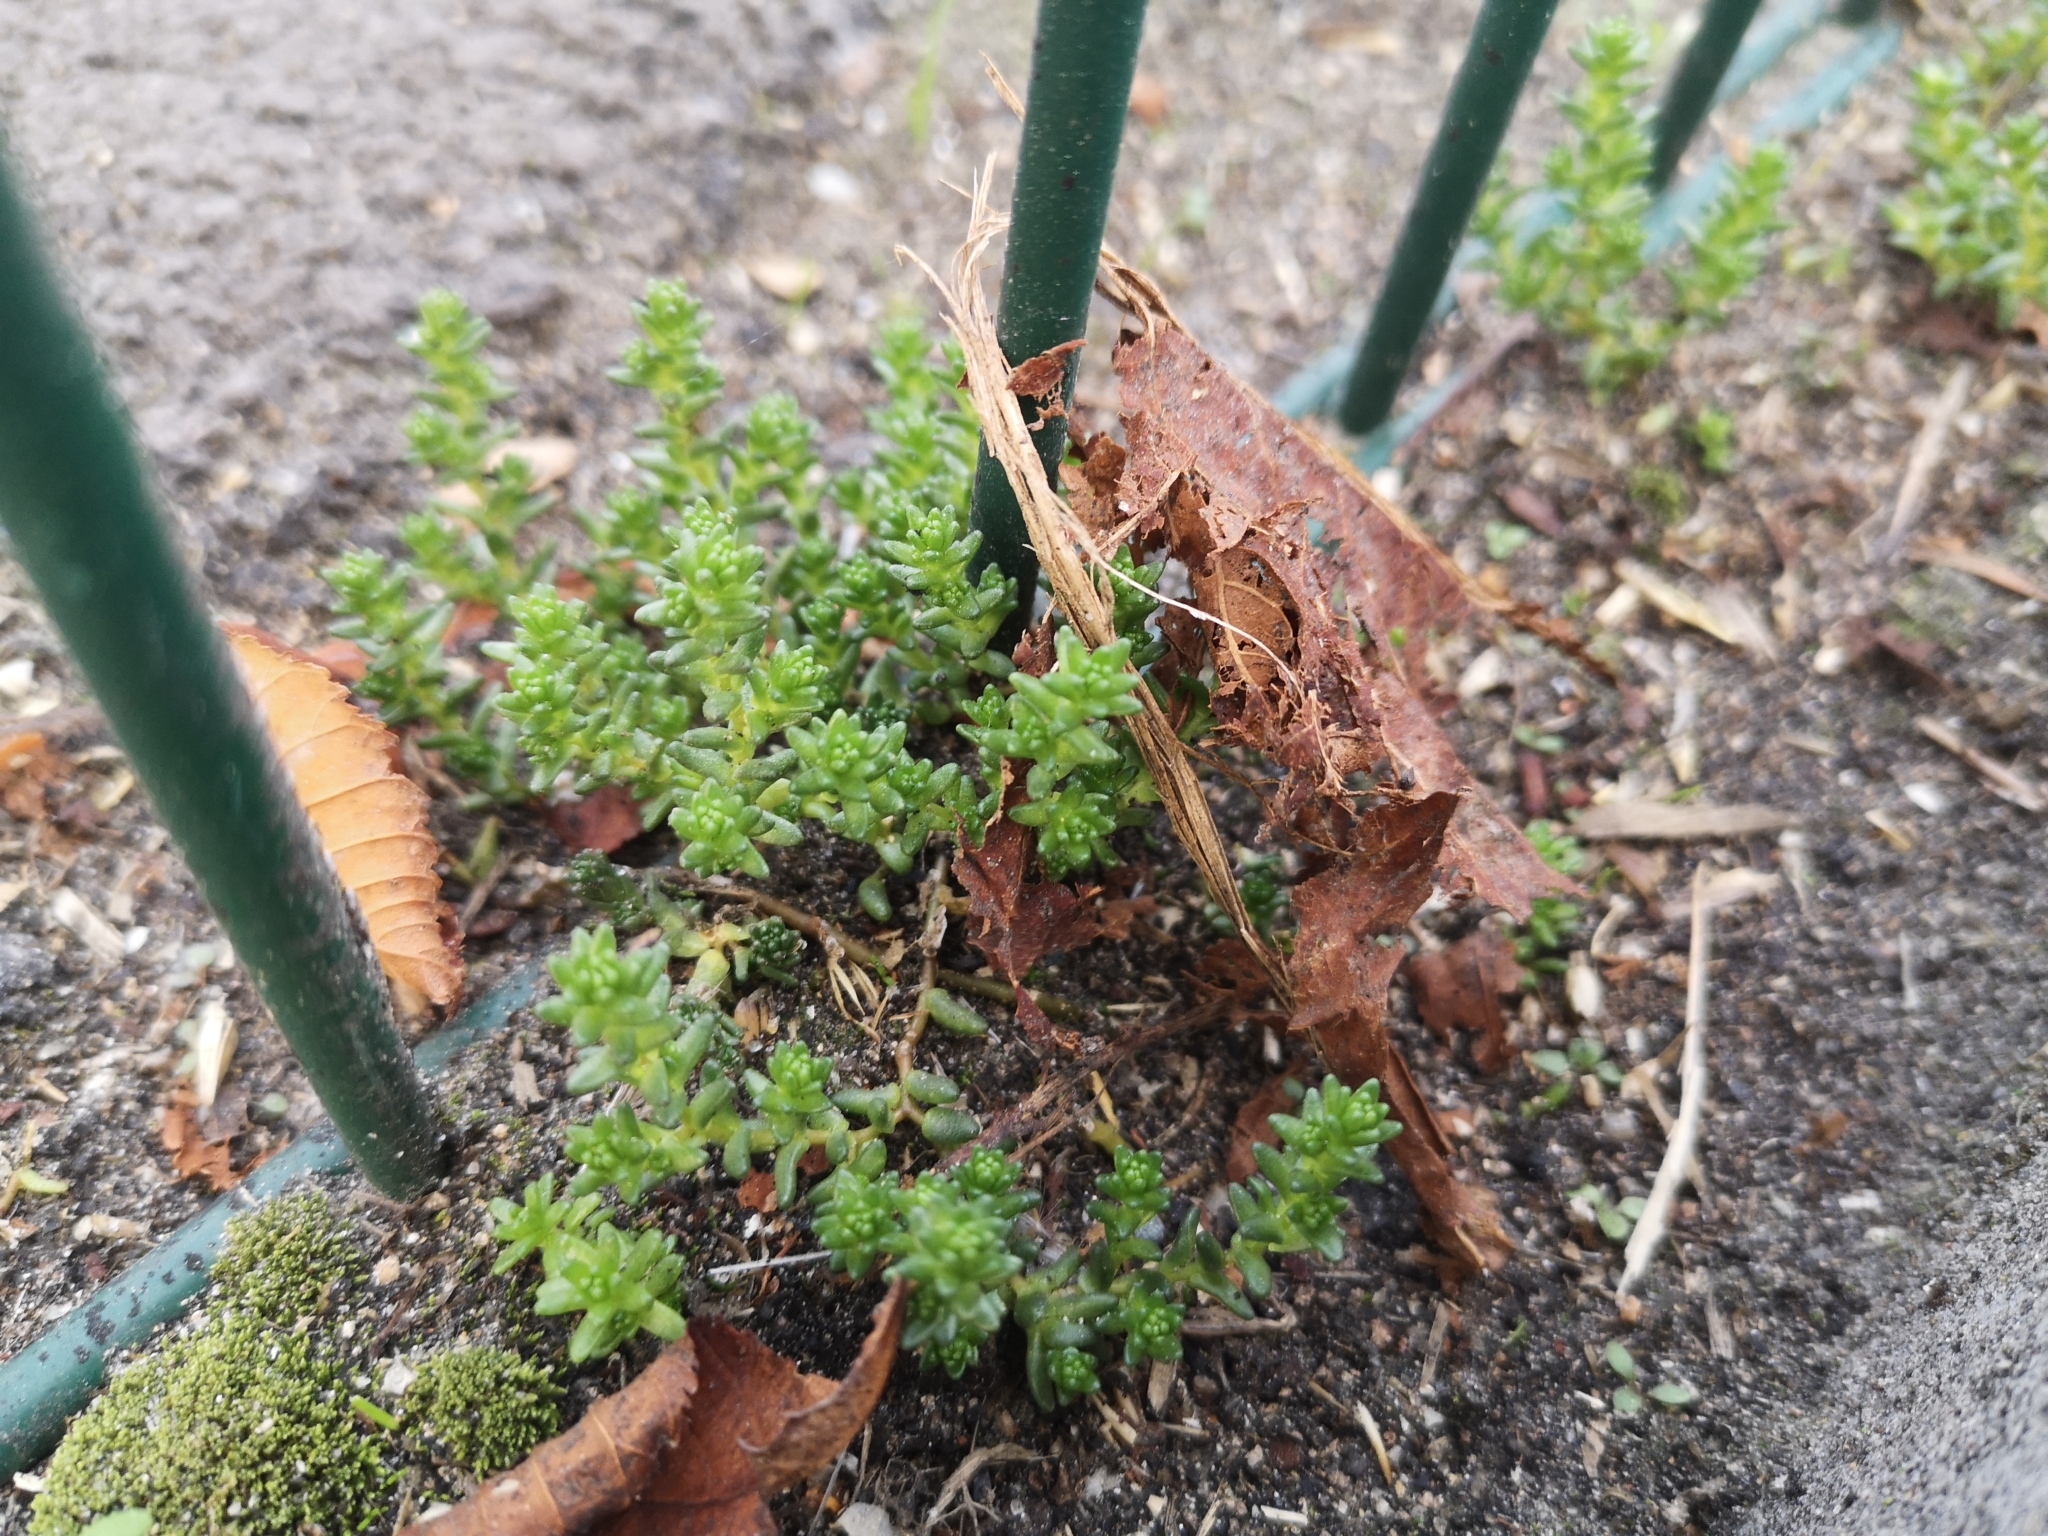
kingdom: Plantae
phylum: Tracheophyta
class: Magnoliopsida
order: Saxifragales
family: Crassulaceae
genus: Sedum
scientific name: Sedum acre
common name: Biting stonecrop
